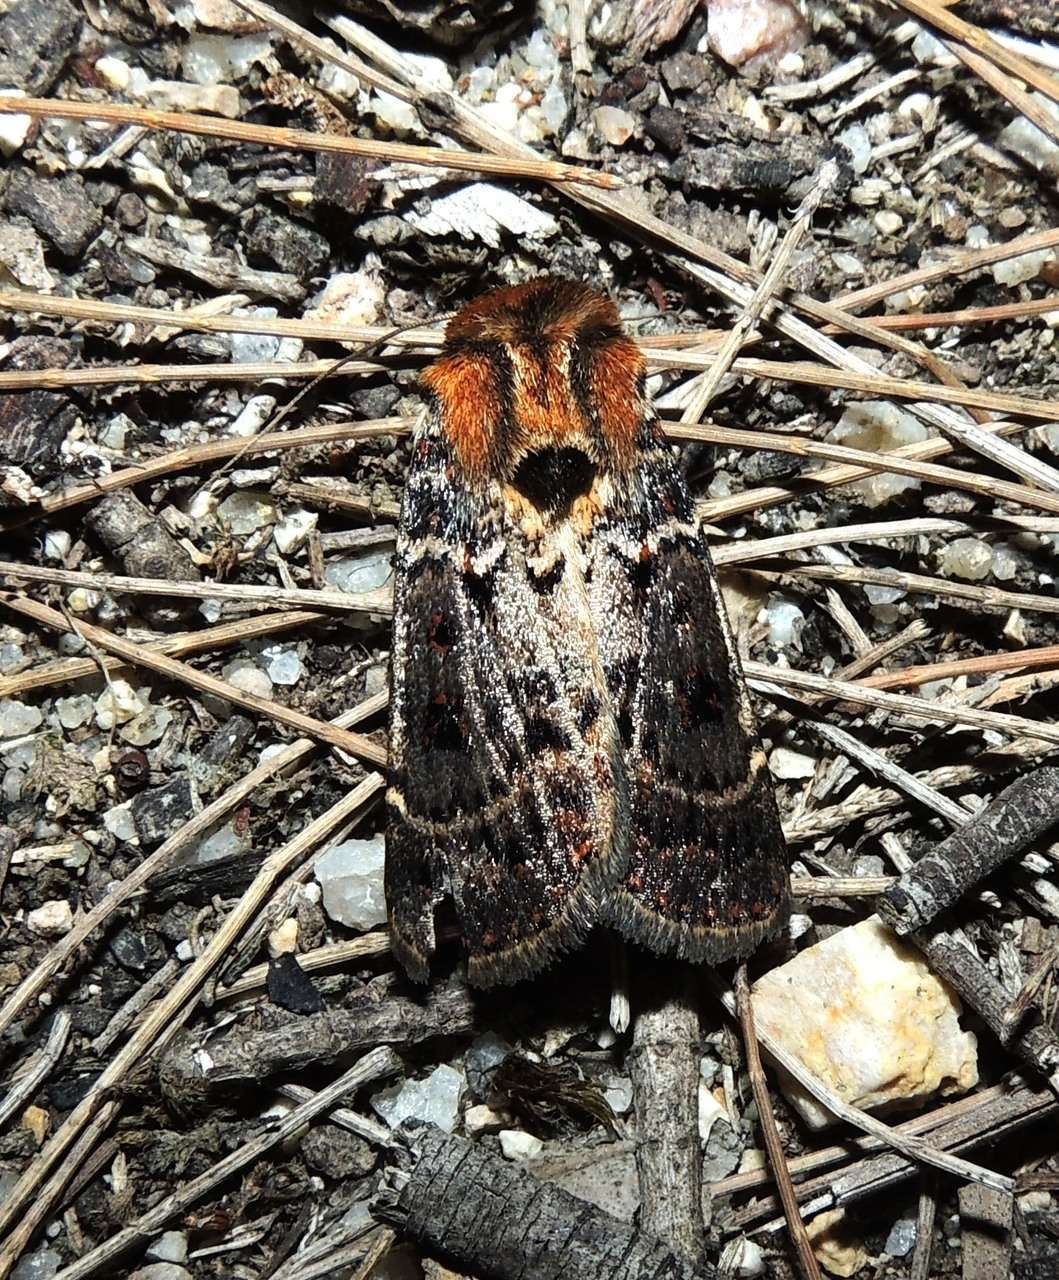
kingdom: Animalia
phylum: Arthropoda
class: Insecta
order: Lepidoptera
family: Noctuidae
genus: Proteuxoa
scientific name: Proteuxoa sanguinipuncta
